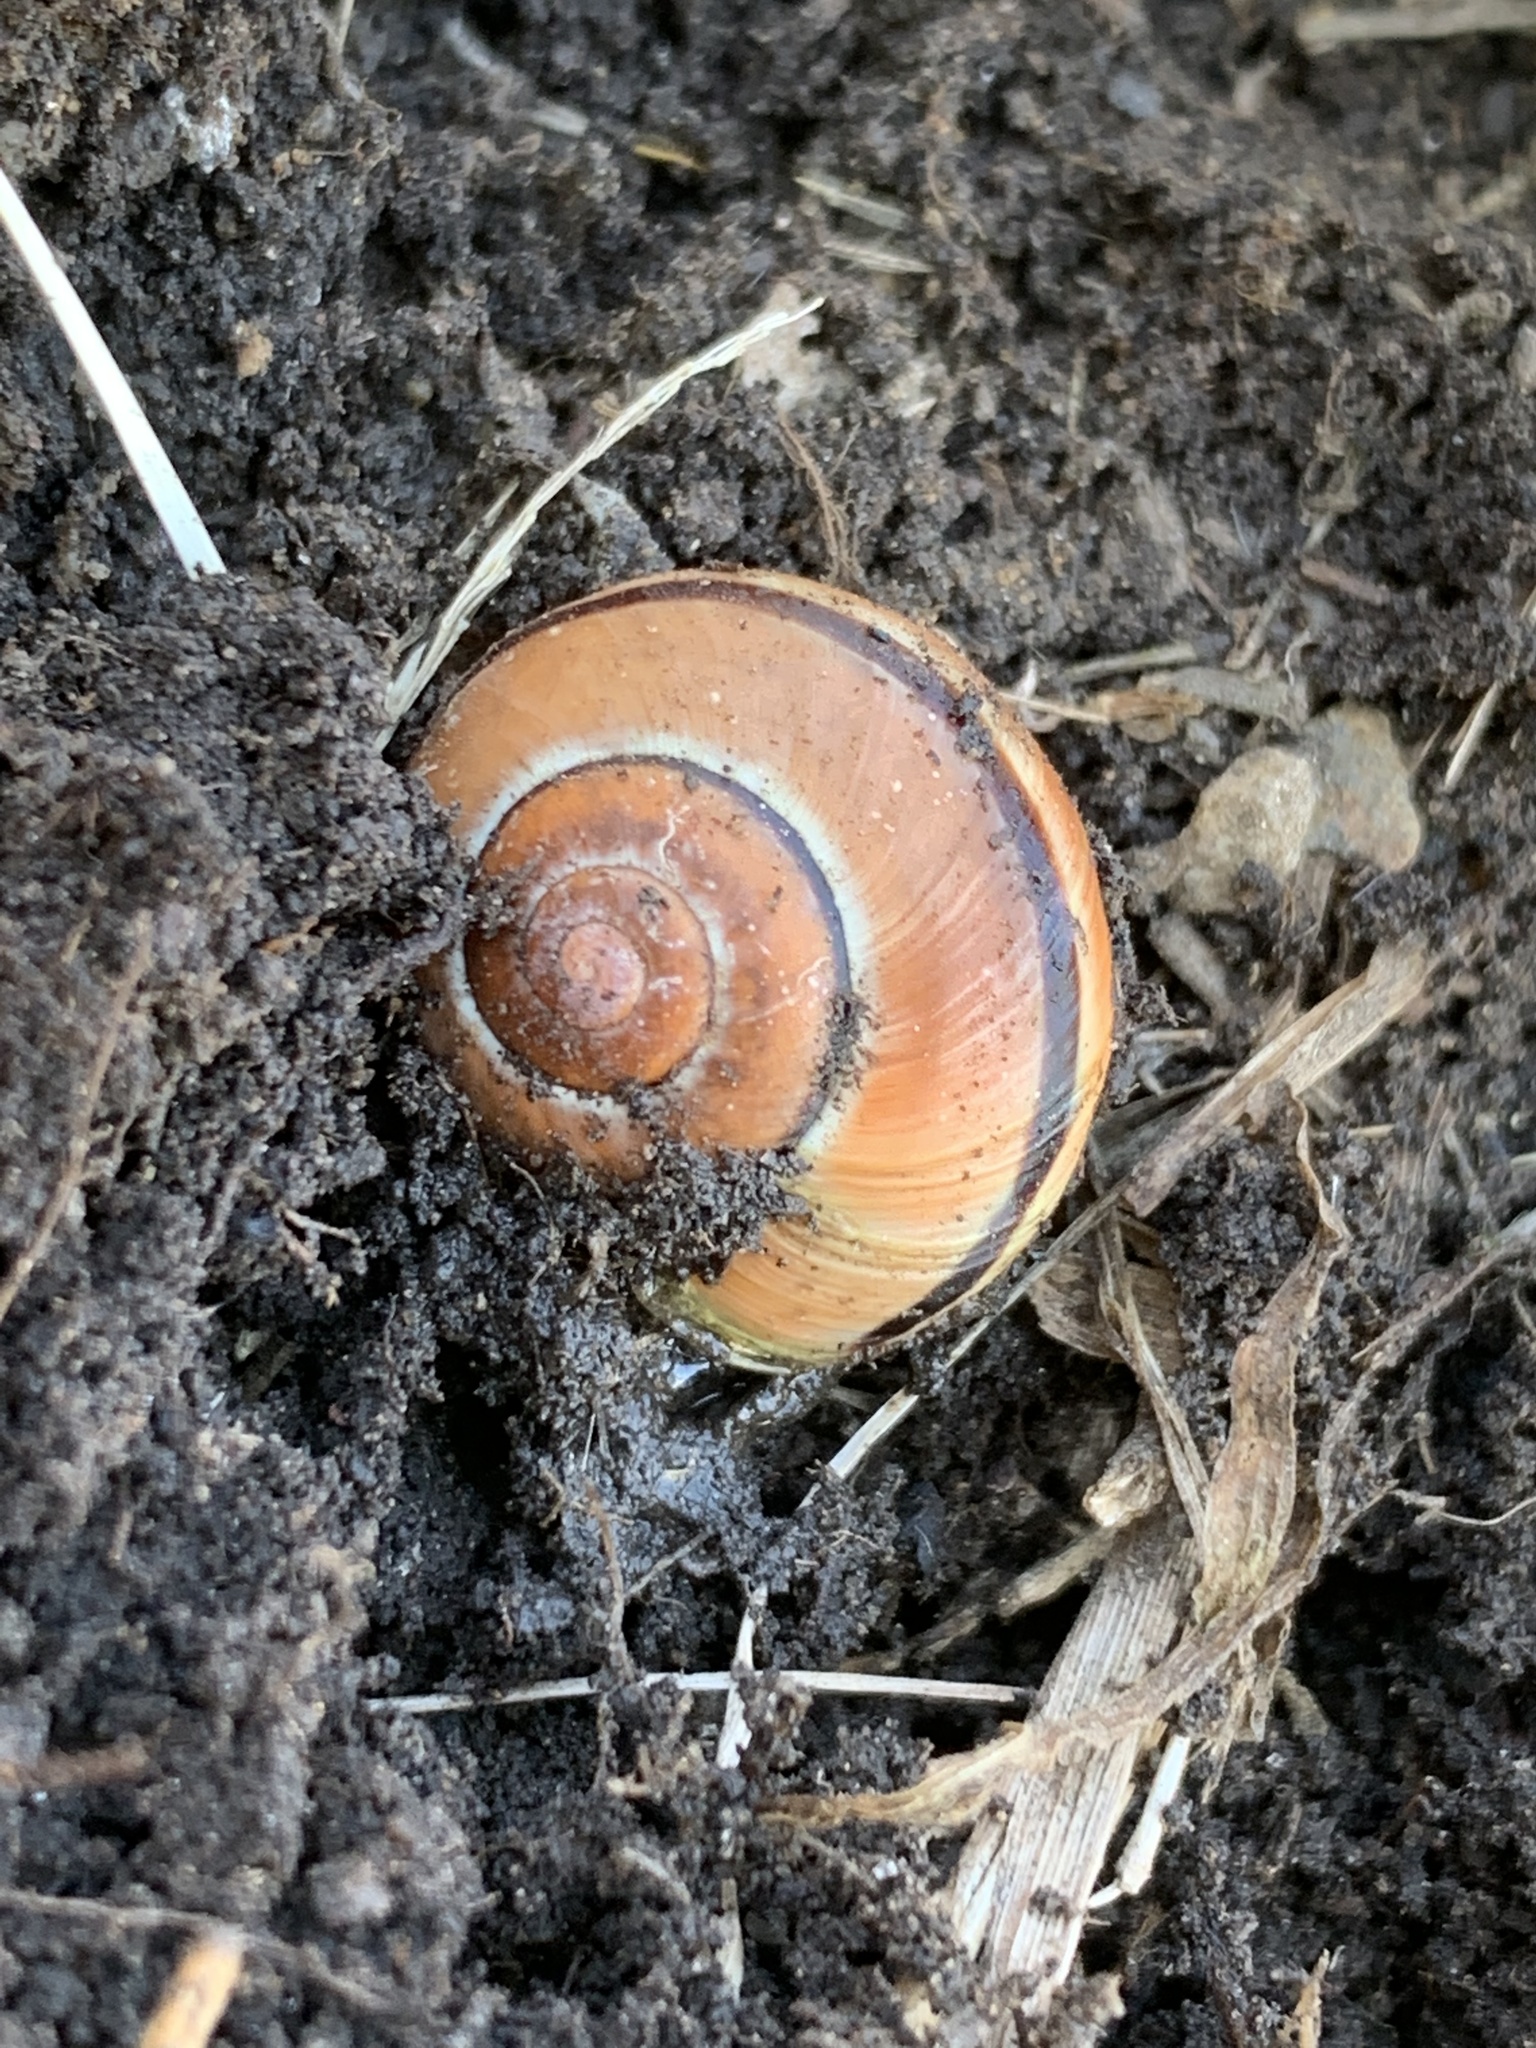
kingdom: Animalia
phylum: Mollusca
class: Gastropoda
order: Stylommatophora
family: Helicidae
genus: Cepaea
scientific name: Cepaea nemoralis
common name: Grovesnail
